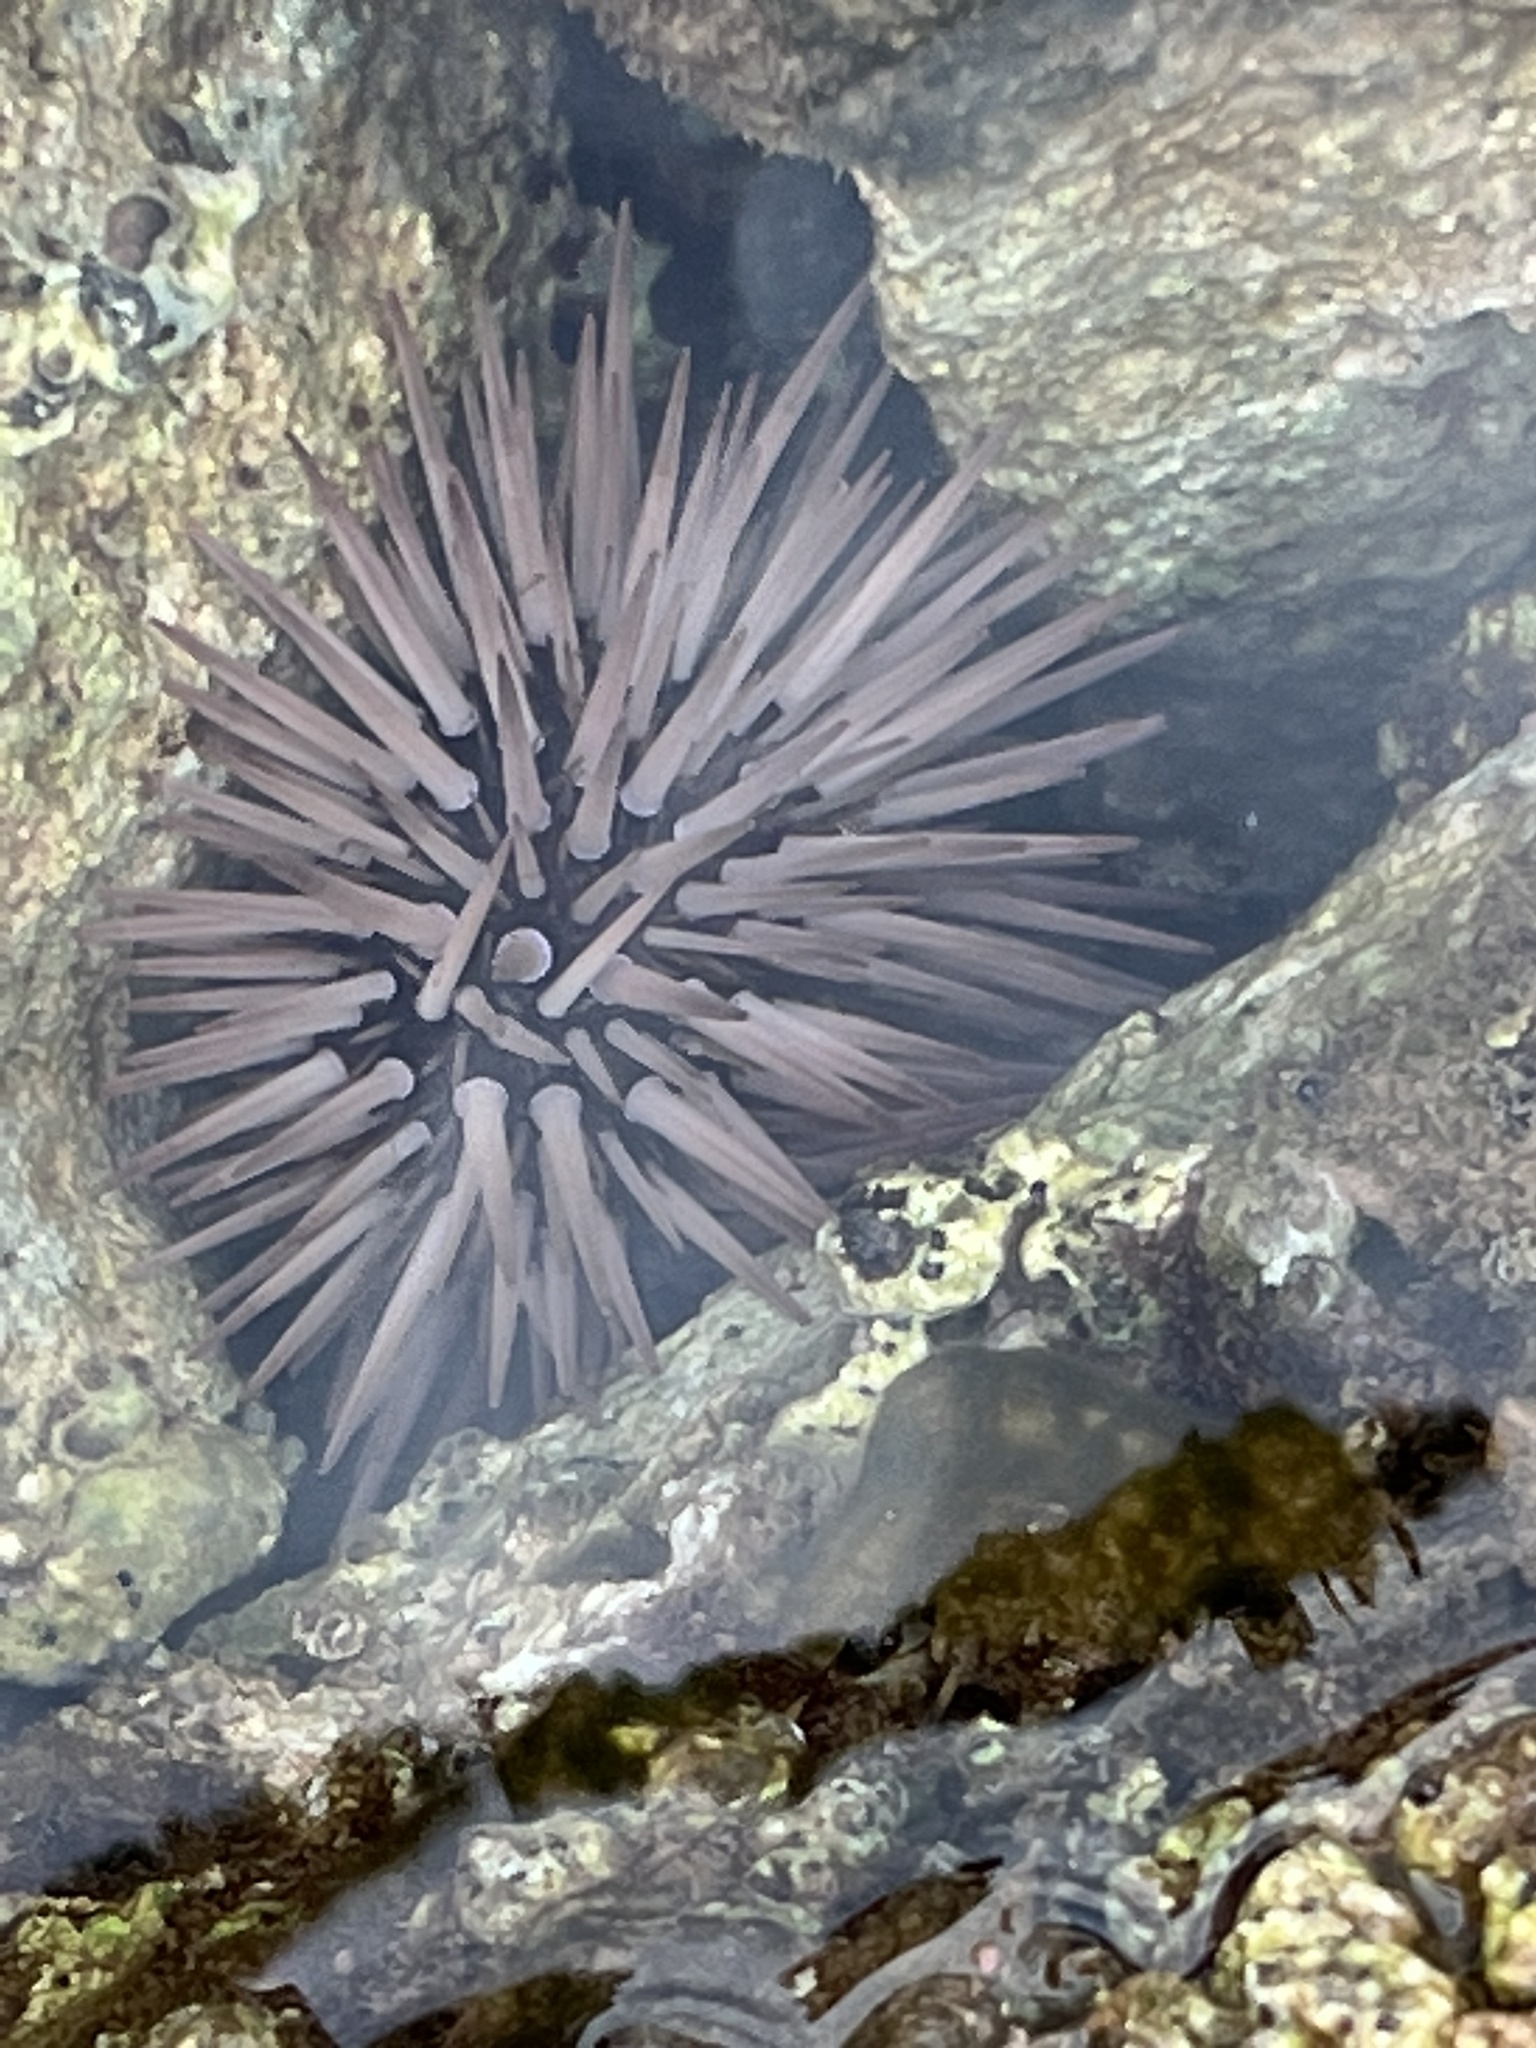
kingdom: Animalia
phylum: Echinodermata
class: Echinoidea
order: Camarodonta
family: Echinometridae
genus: Echinometra
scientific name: Echinometra mathaei
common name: Rock-boring urchin
